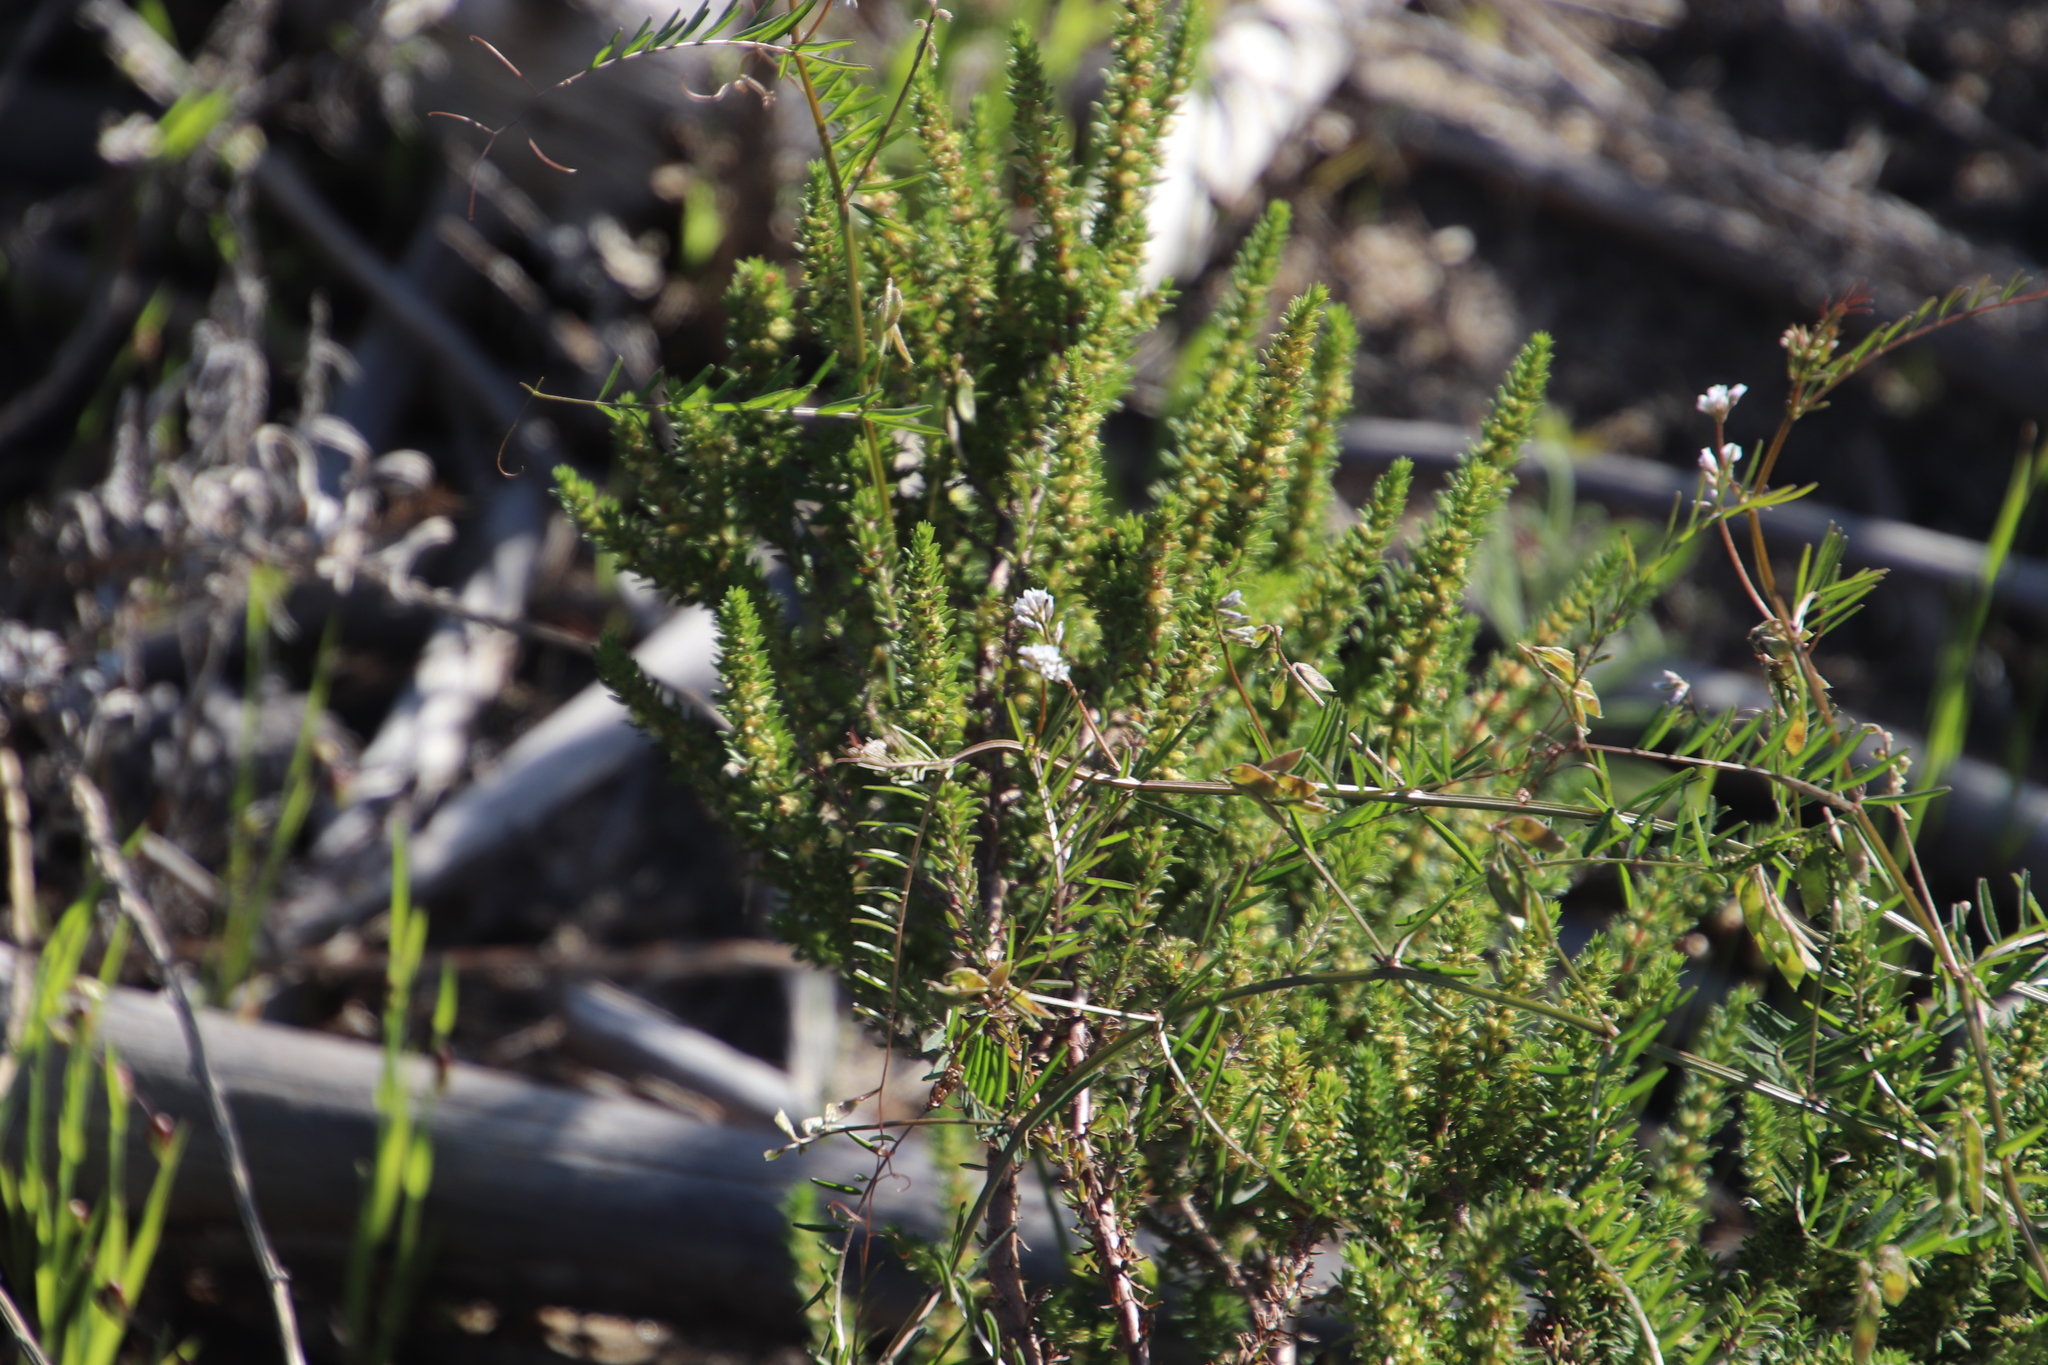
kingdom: Plantae
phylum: Tracheophyta
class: Magnoliopsida
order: Fabales
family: Fabaceae
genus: Vicia
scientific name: Vicia hirsuta
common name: Tiny vetch
